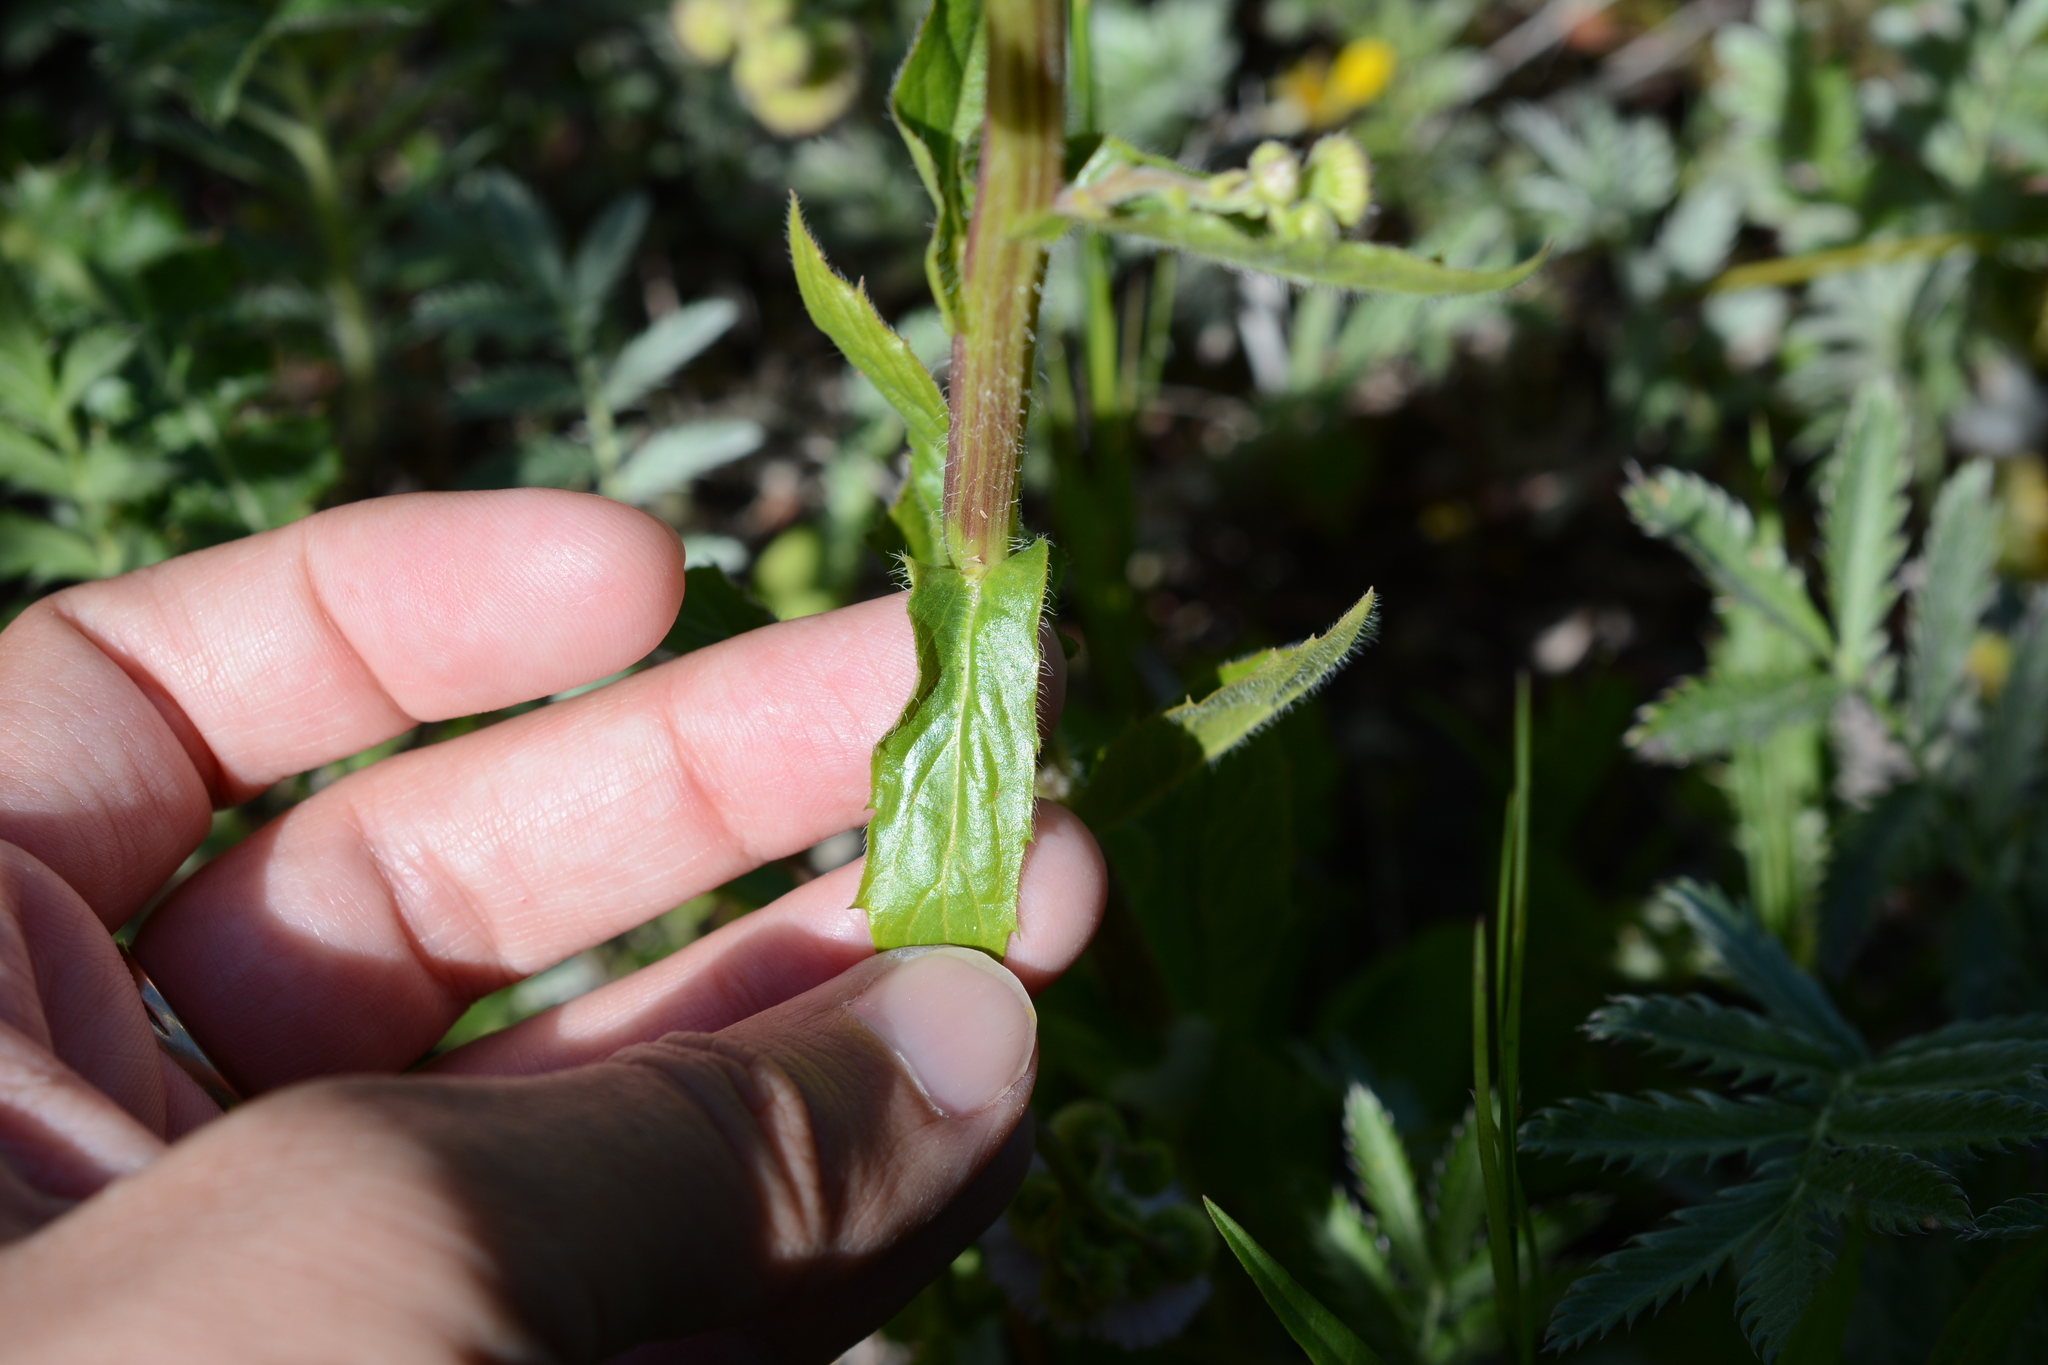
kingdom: Plantae
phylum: Tracheophyta
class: Magnoliopsida
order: Asterales
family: Asteraceae
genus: Erigeron
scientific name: Erigeron philadelphicus
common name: Robin's-plantain
